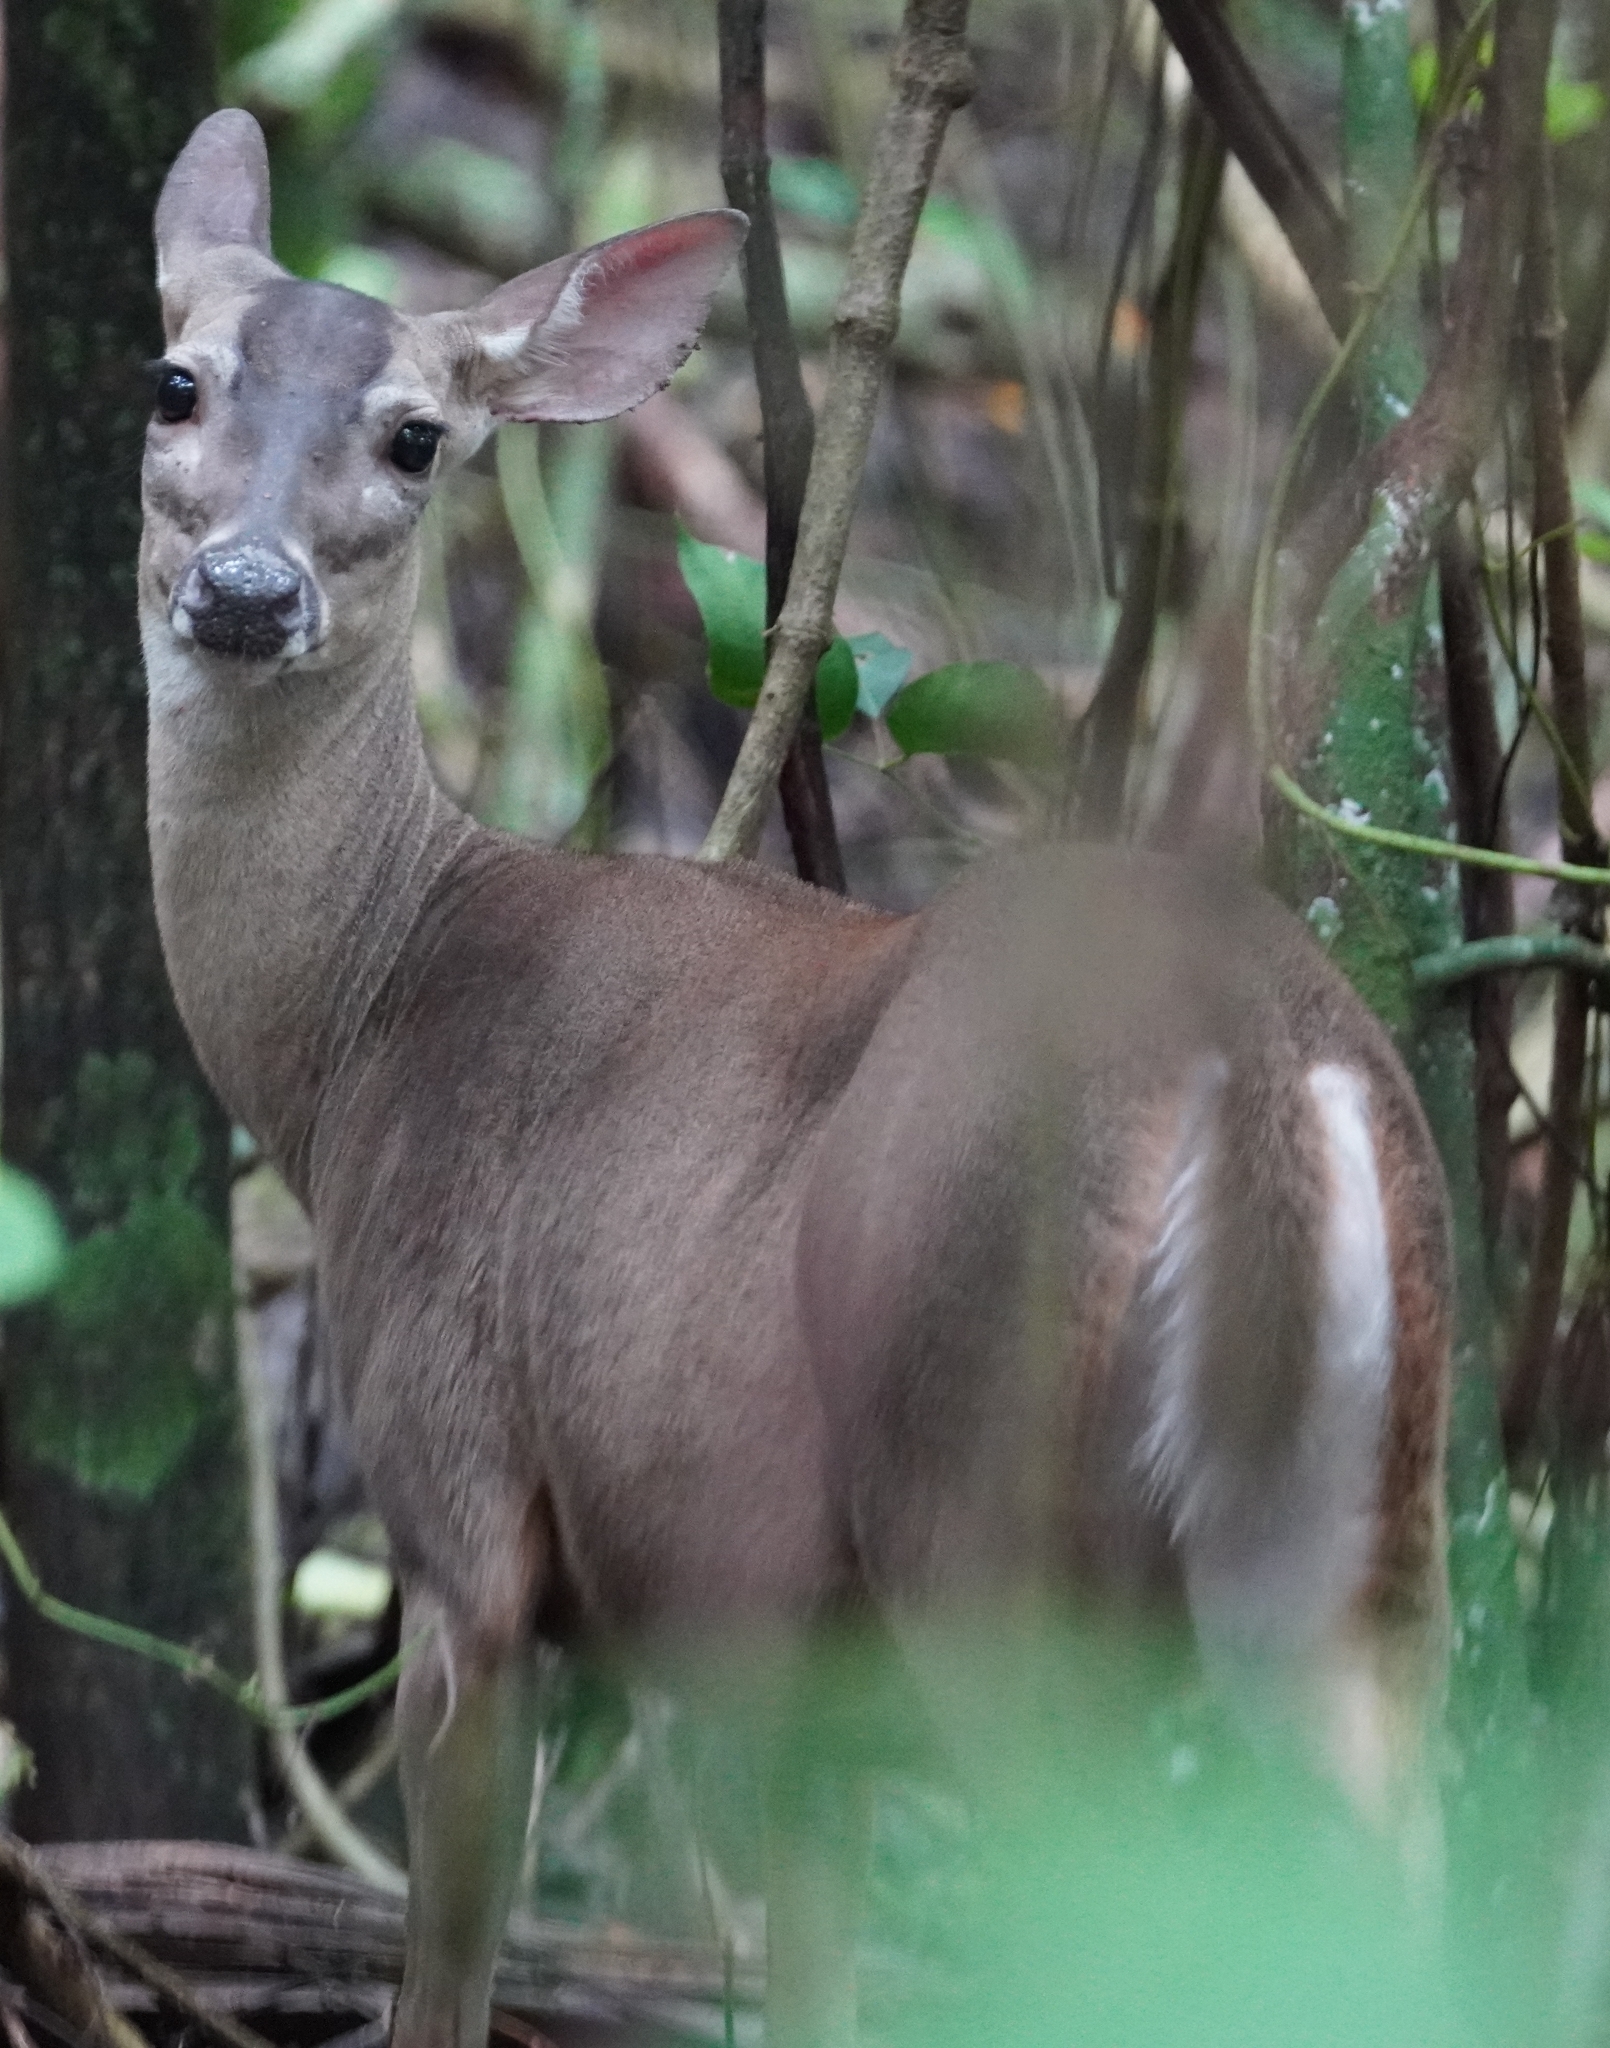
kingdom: Animalia
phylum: Chordata
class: Mammalia
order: Artiodactyla
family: Cervidae
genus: Odocoileus
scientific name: Odocoileus virginianus
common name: White-tailed deer
